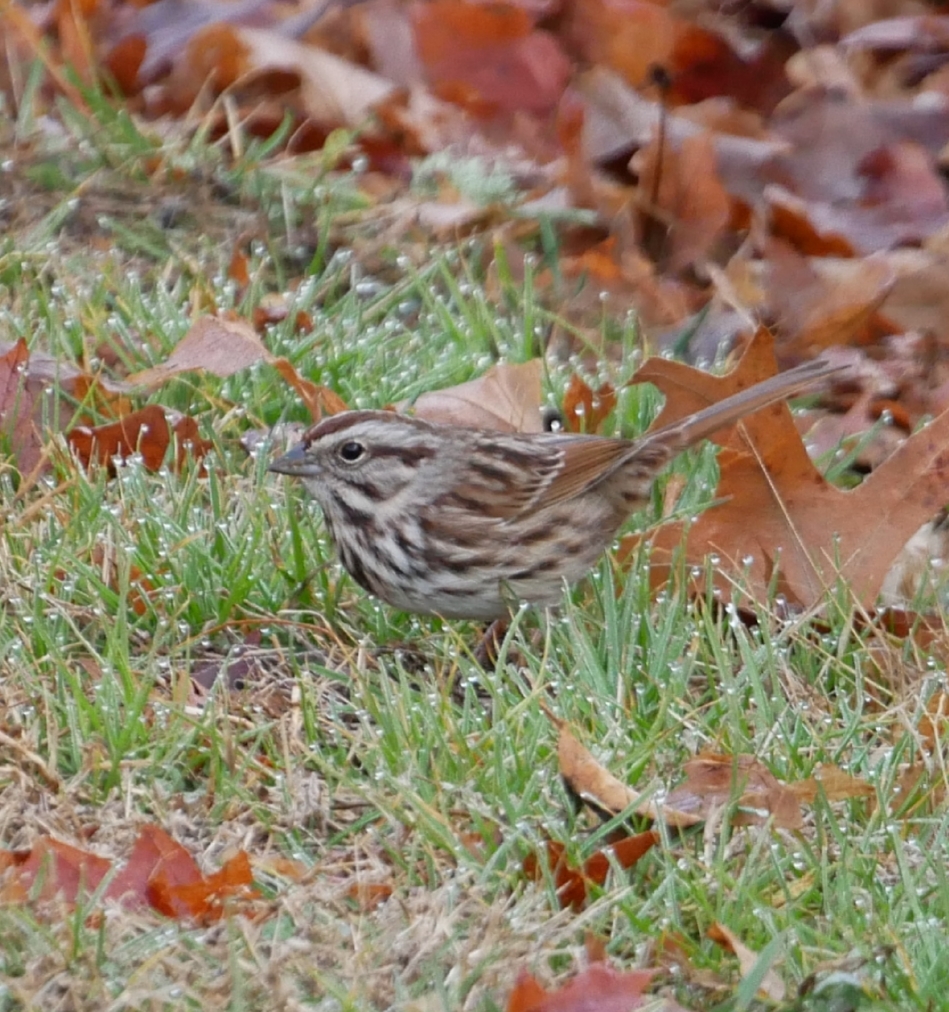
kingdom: Animalia
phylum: Chordata
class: Aves
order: Passeriformes
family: Passerellidae
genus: Melospiza
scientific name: Melospiza melodia
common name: Song sparrow
